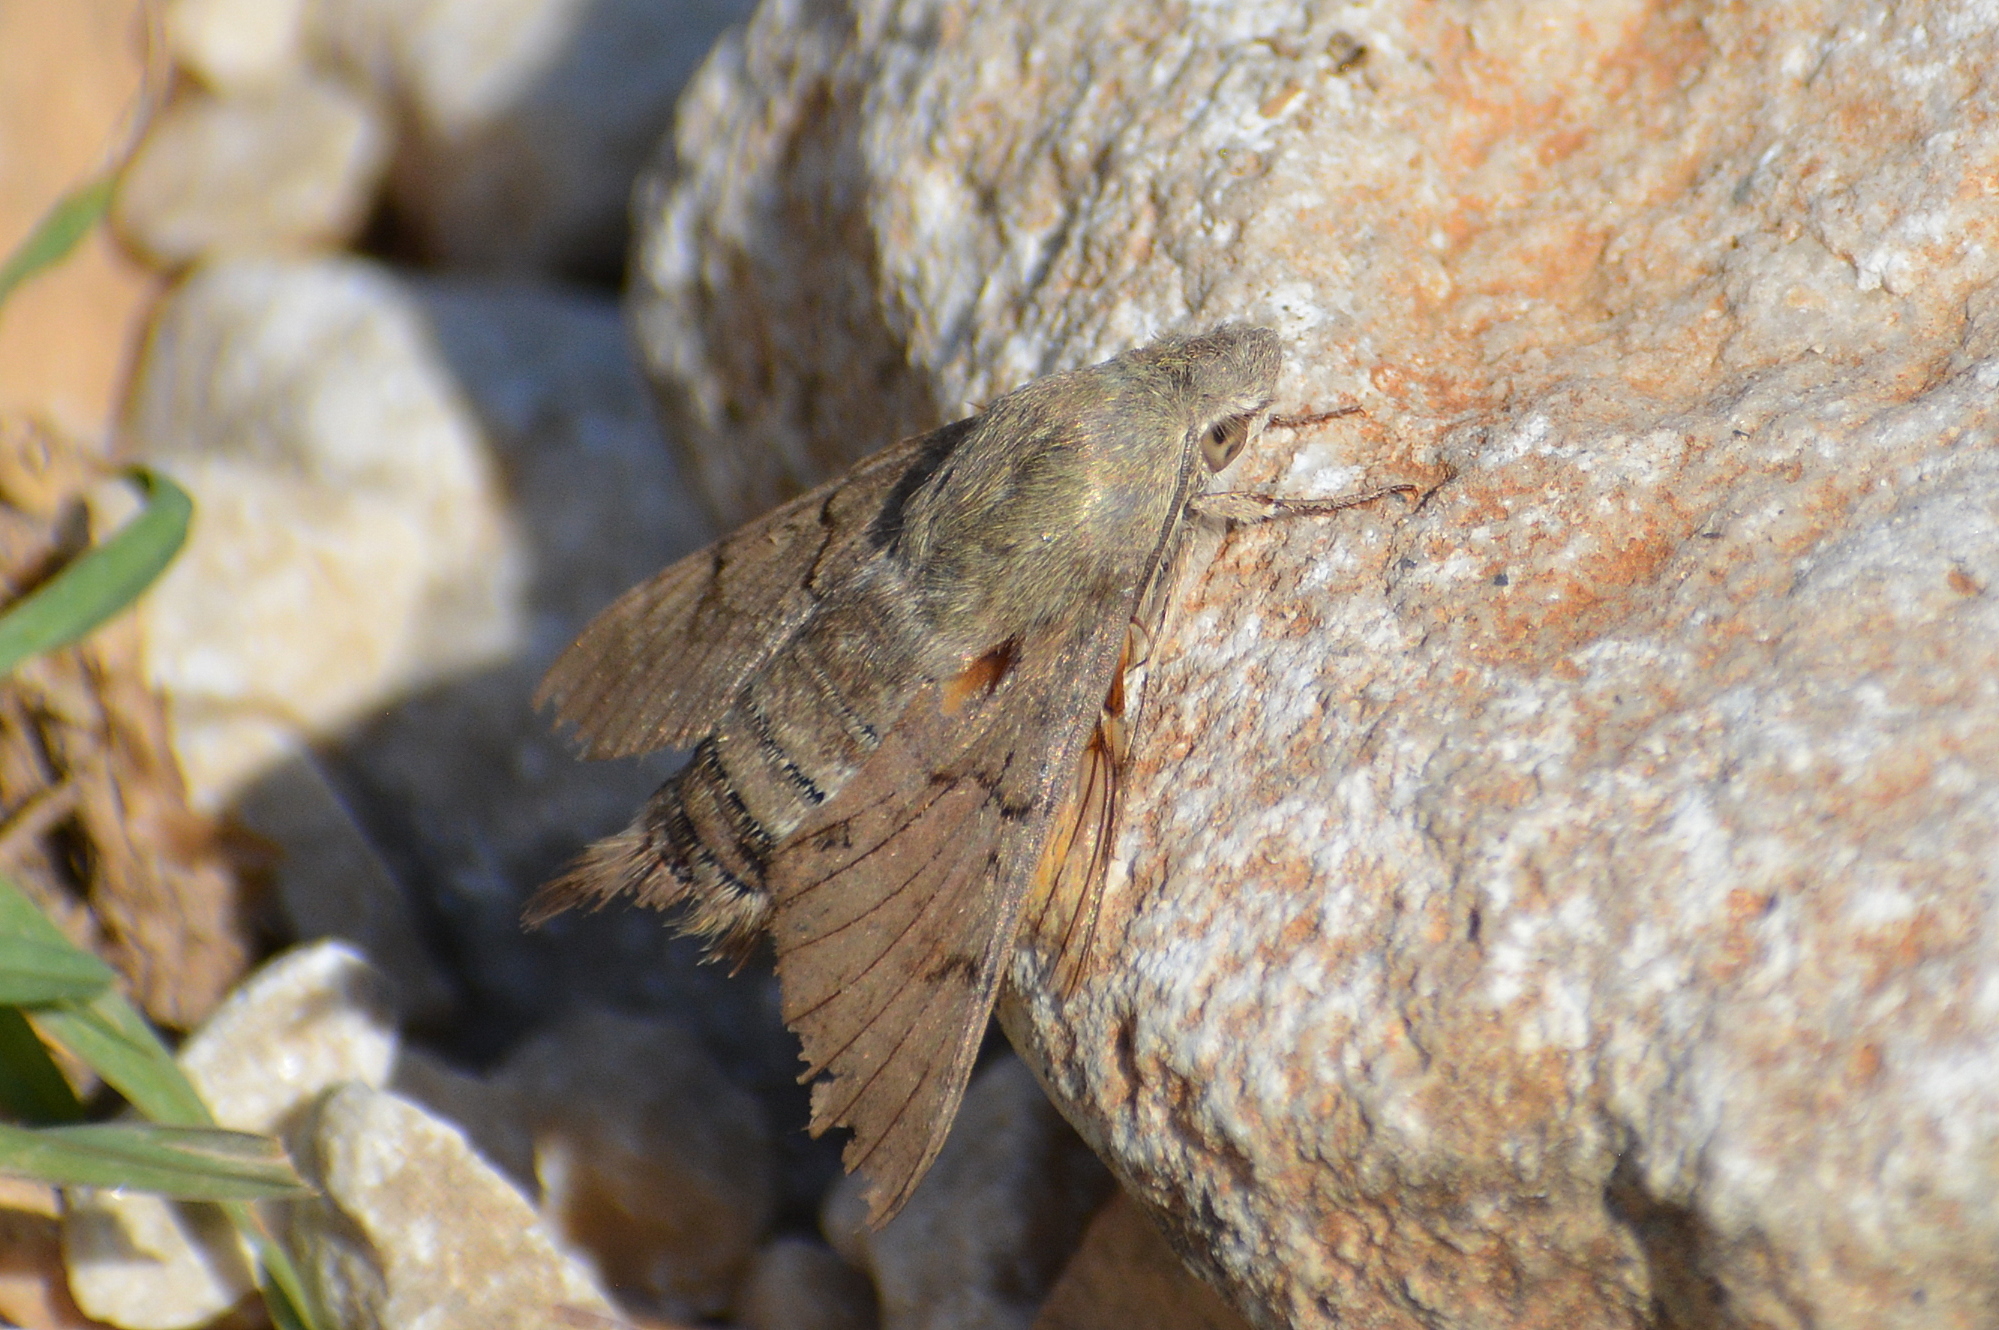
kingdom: Animalia
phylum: Arthropoda
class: Insecta
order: Lepidoptera
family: Sphingidae
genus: Macroglossum
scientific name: Macroglossum stellatarum
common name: Humming-bird hawk-moth
